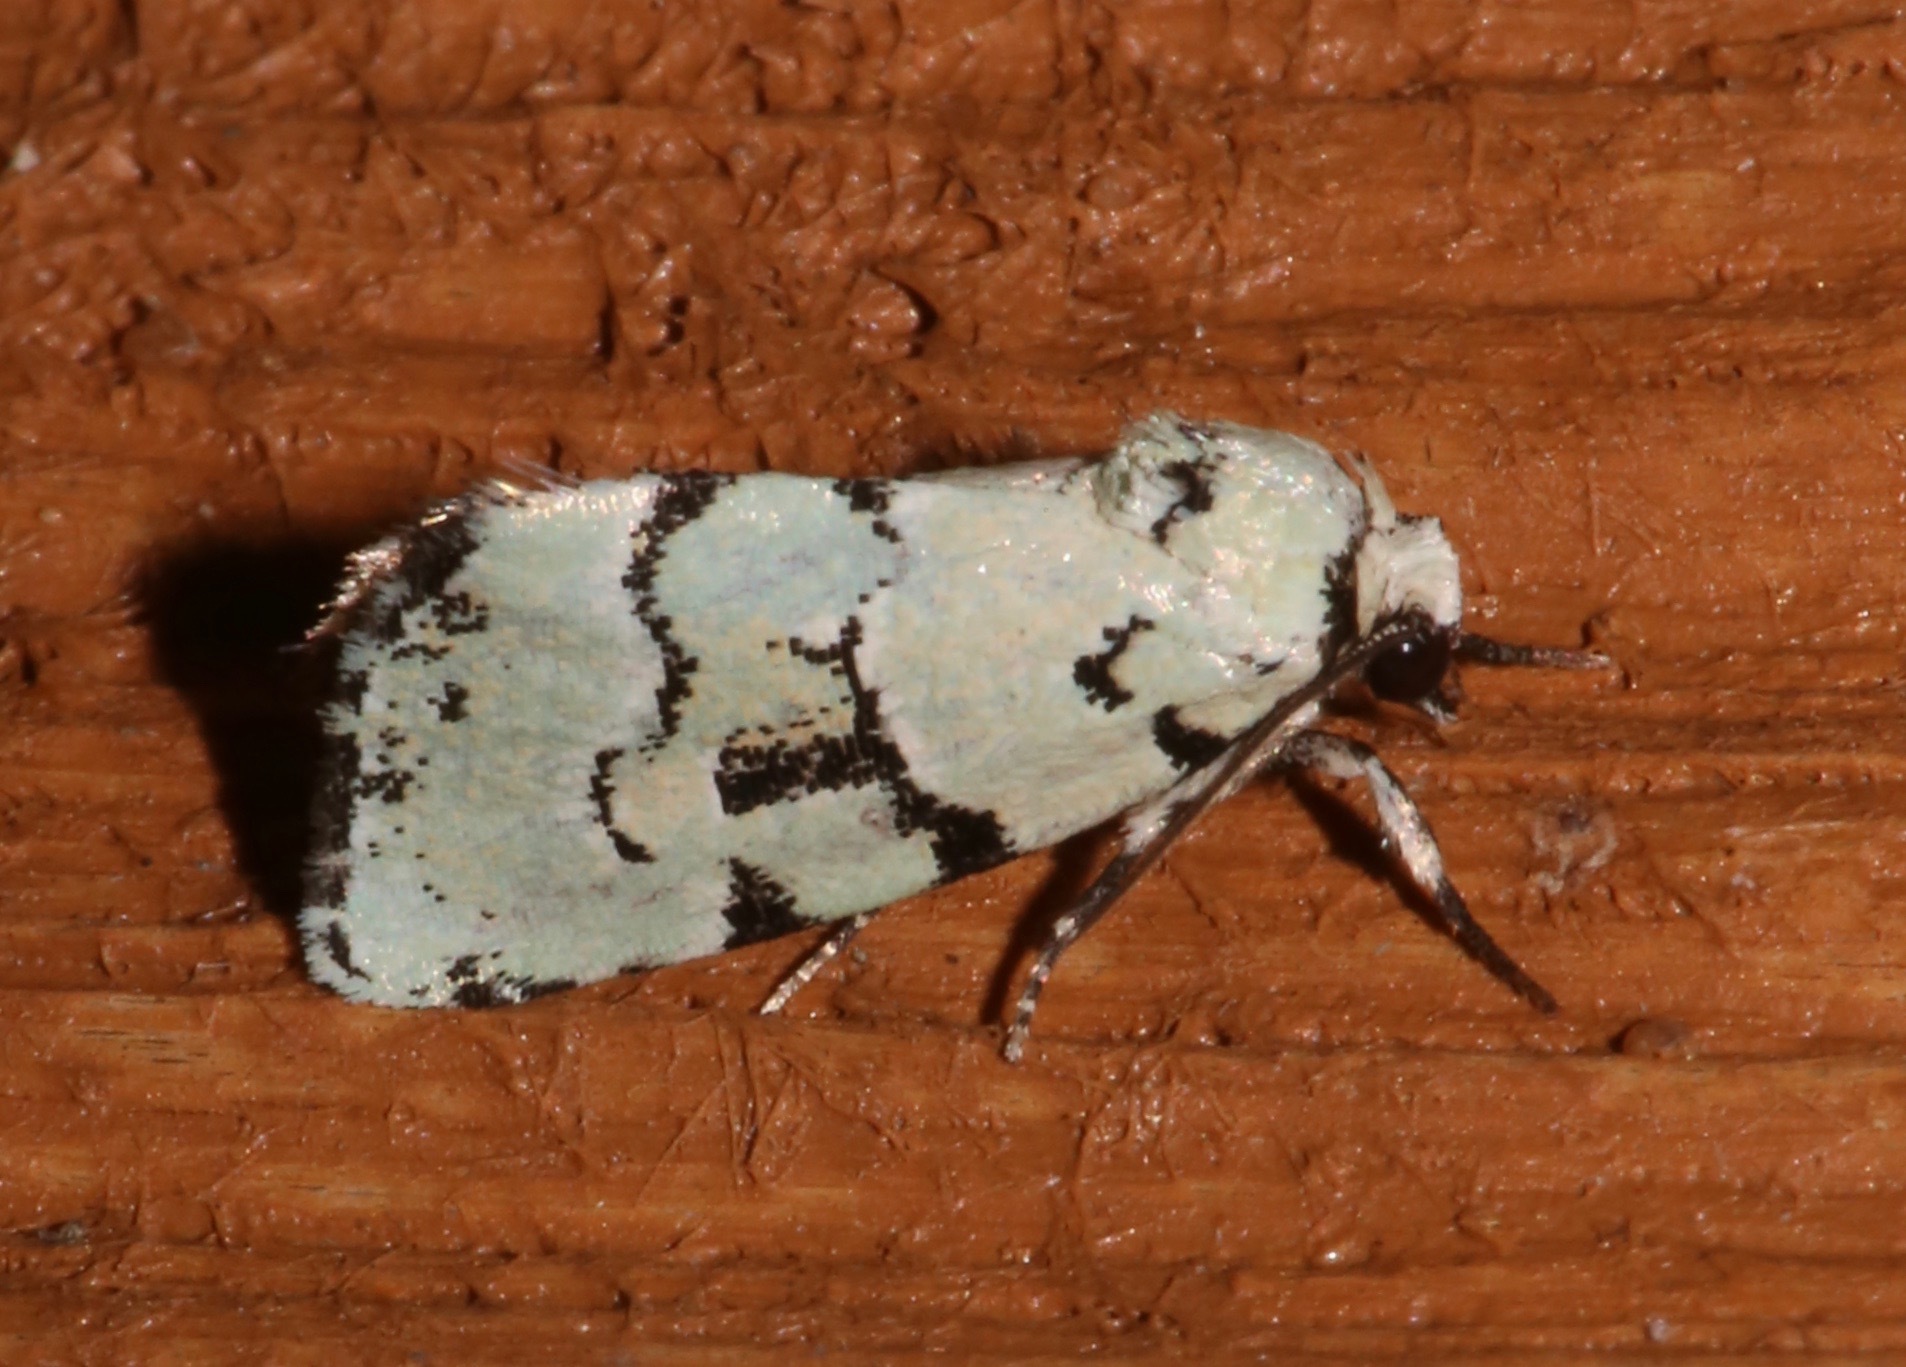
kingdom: Animalia
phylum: Arthropoda
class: Insecta
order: Lepidoptera
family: Noctuidae
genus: Elaphria
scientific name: Elaphria cyanympha
